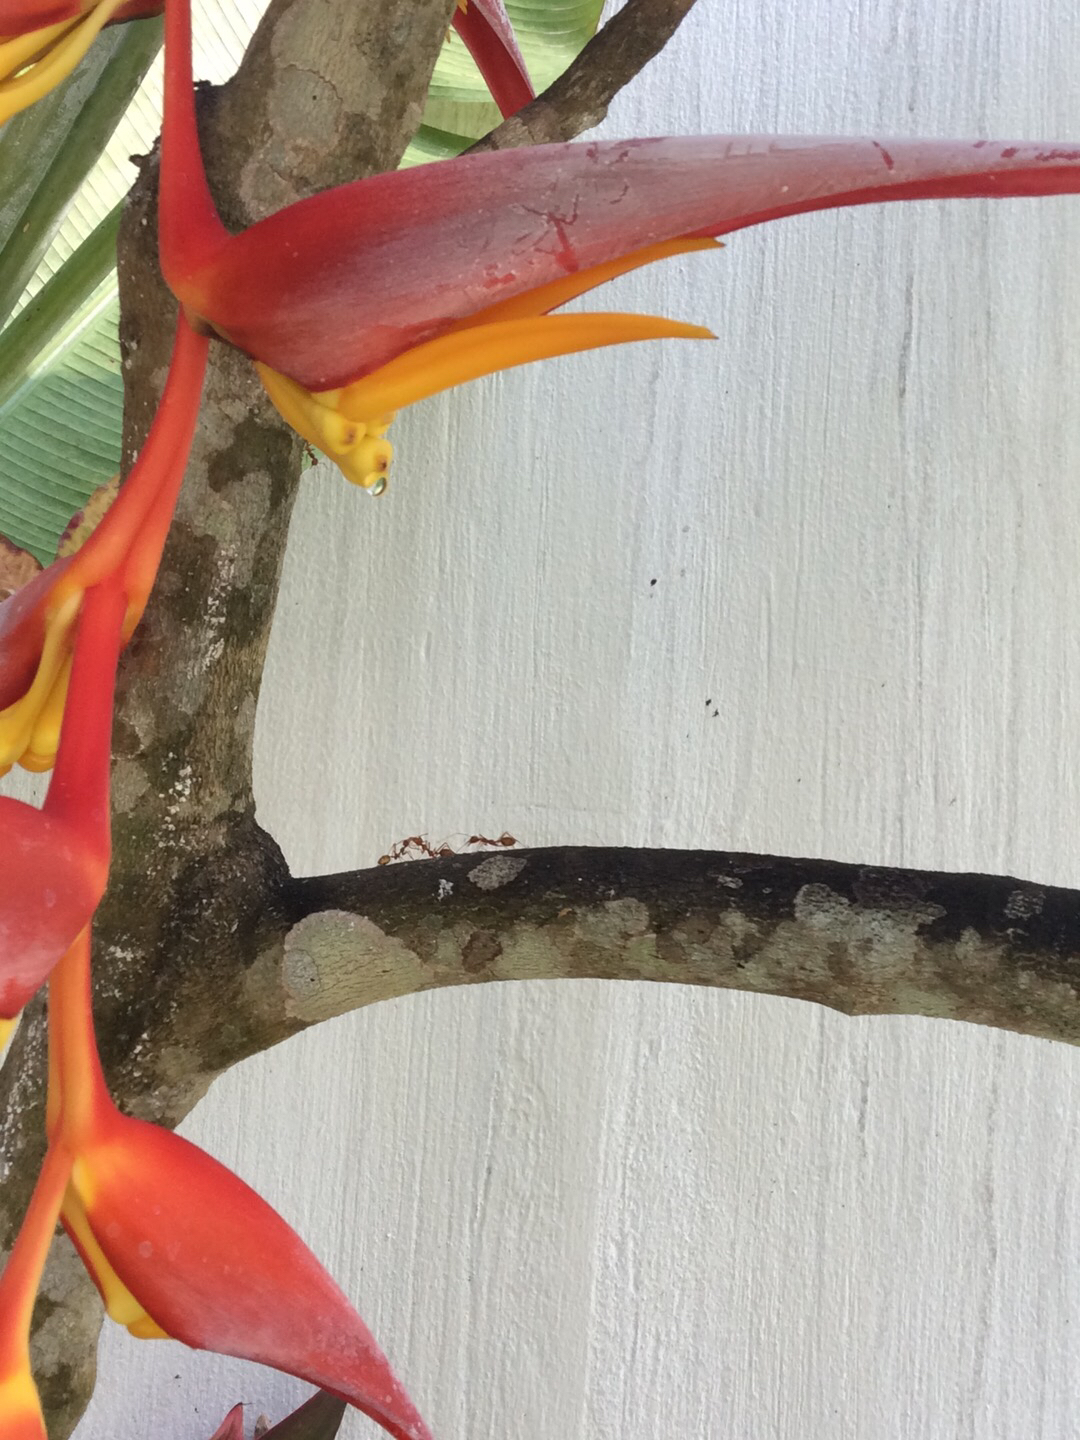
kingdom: Animalia
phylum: Arthropoda
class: Insecta
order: Hymenoptera
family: Formicidae
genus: Oecophylla
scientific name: Oecophylla smaragdina
